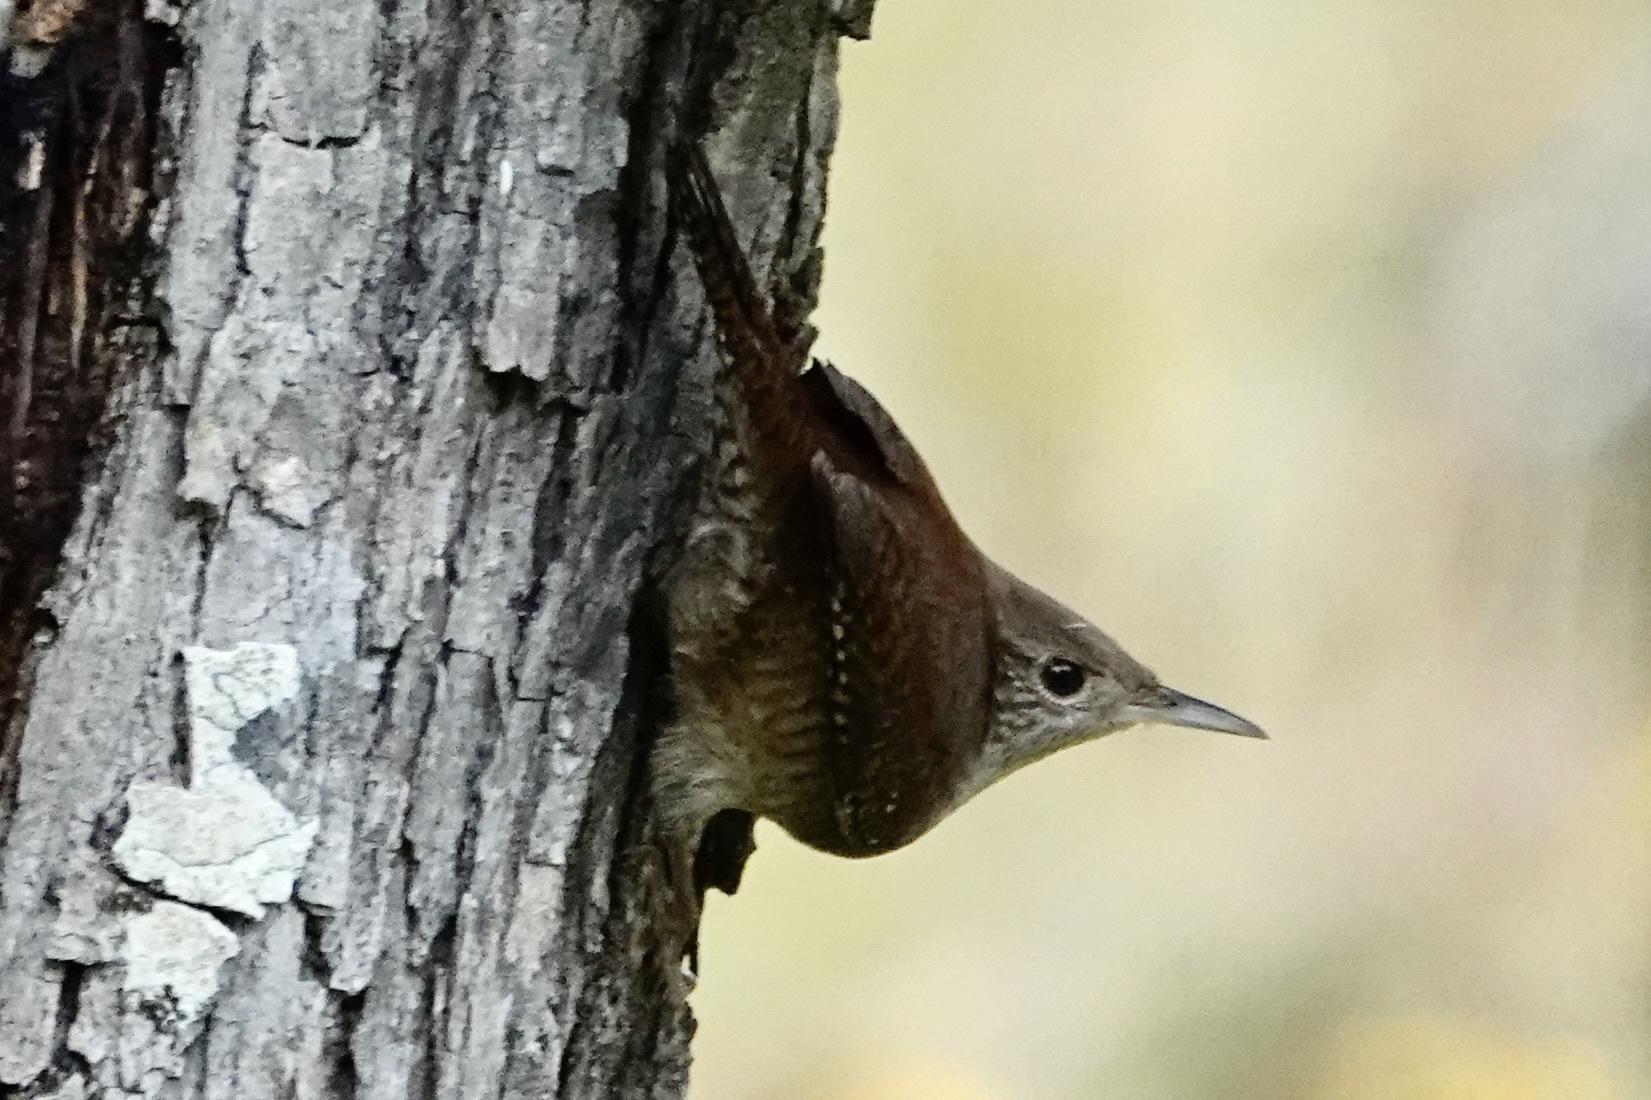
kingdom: Animalia
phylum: Chordata
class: Aves
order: Passeriformes
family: Troglodytidae
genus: Troglodytes
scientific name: Troglodytes aedon
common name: House wren
